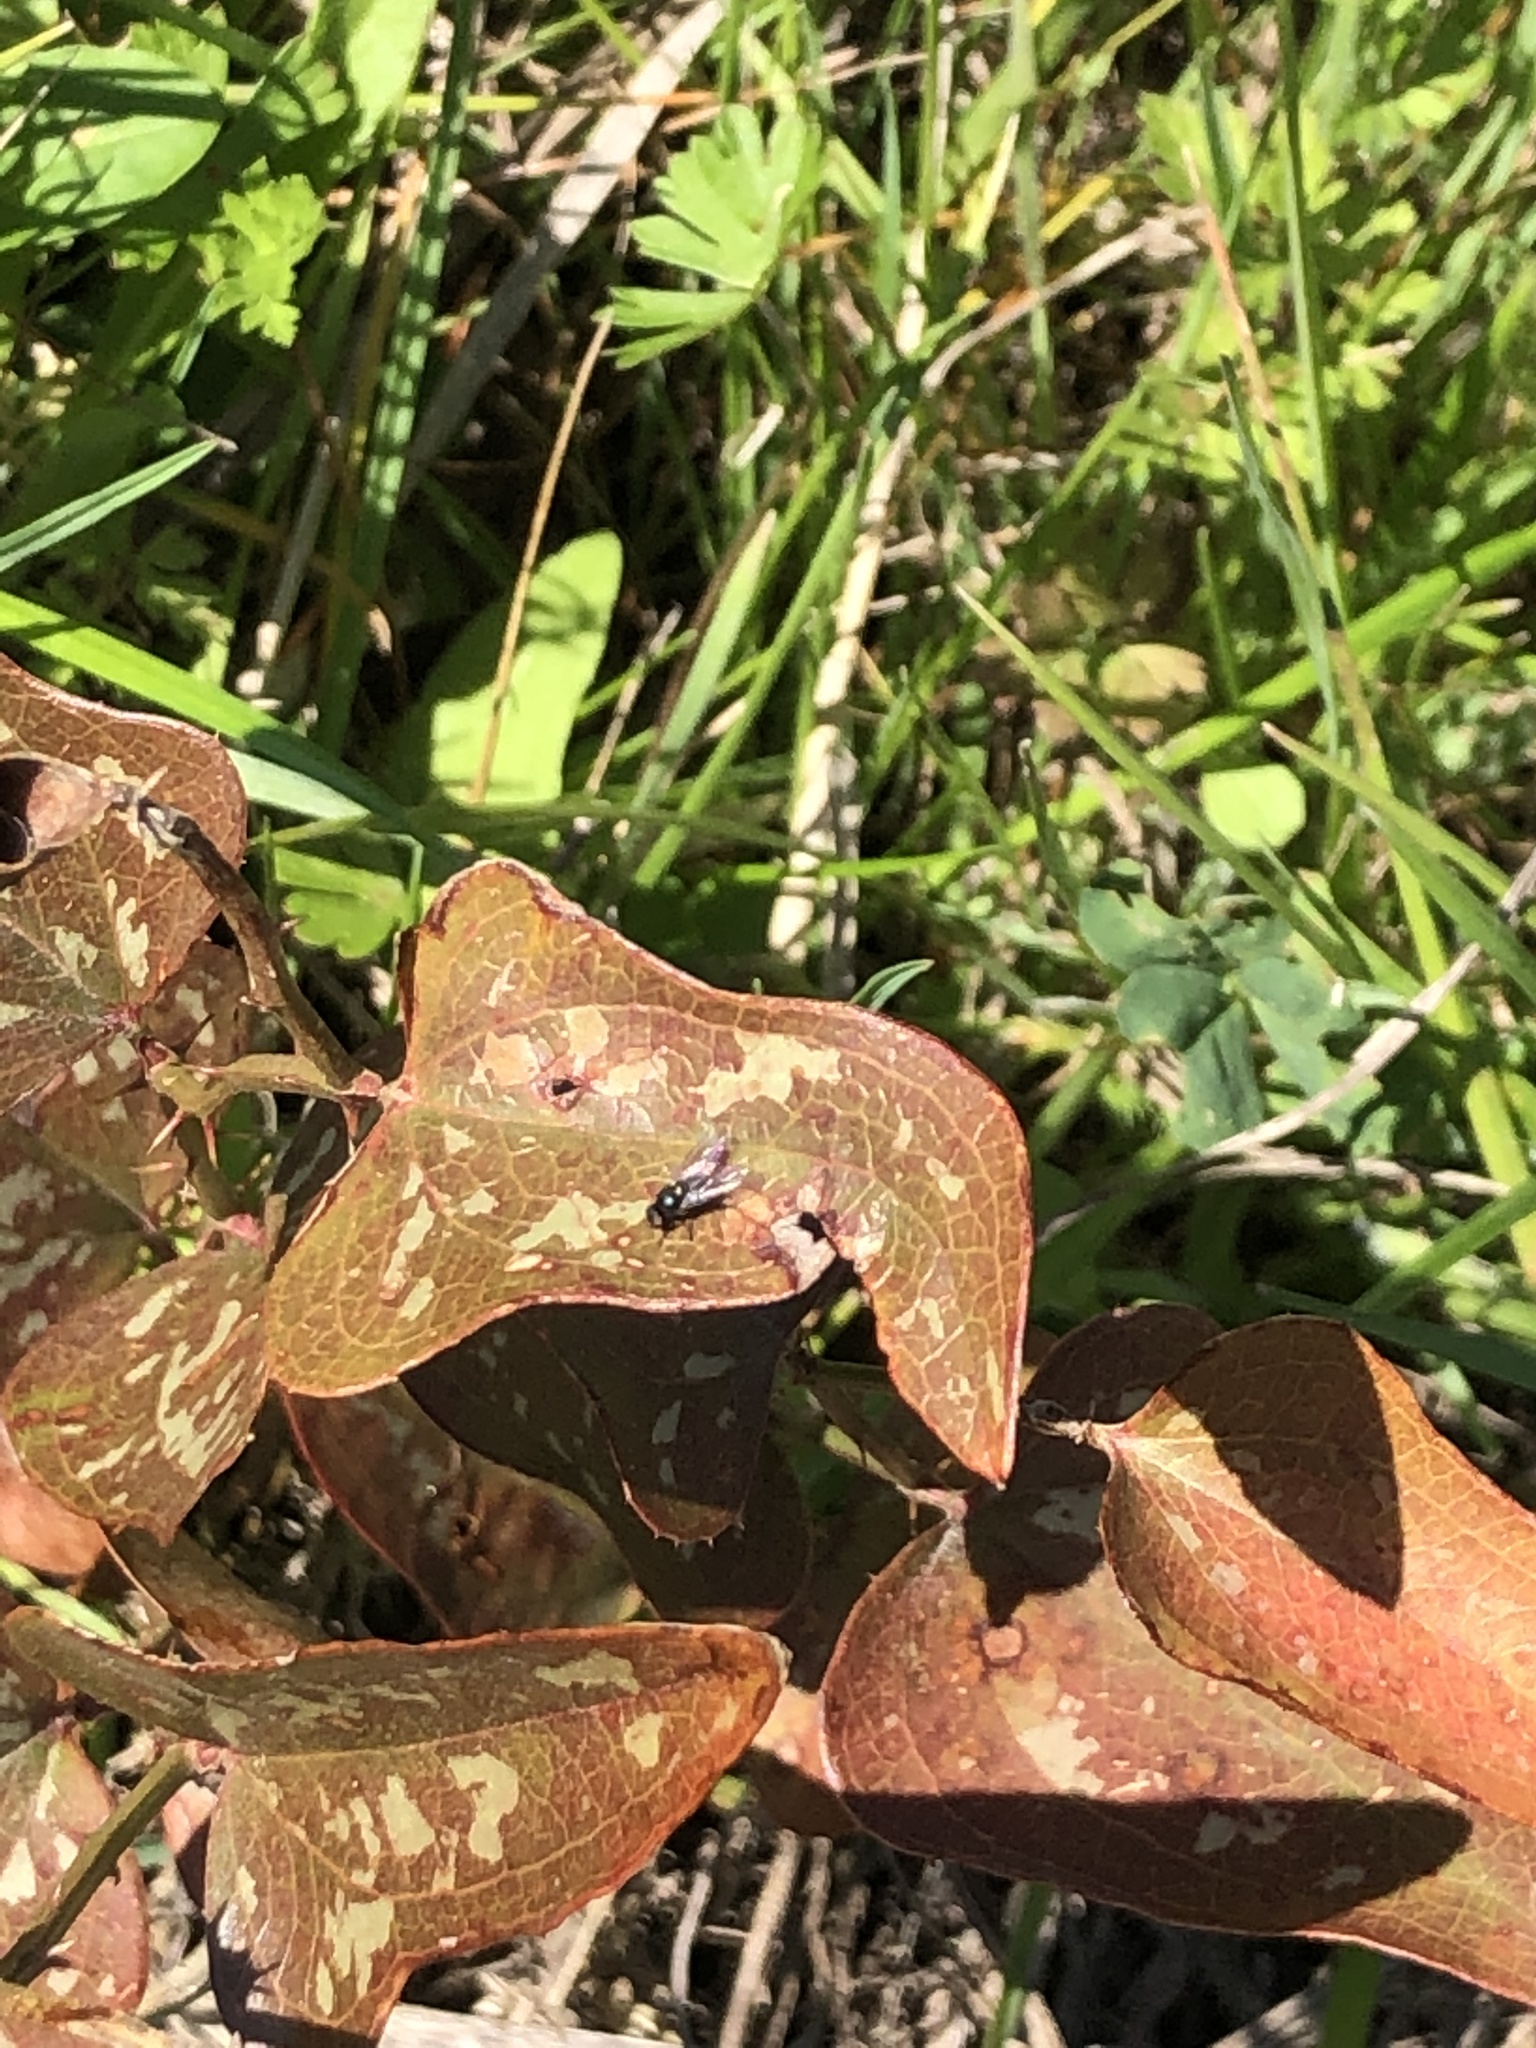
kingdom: Plantae
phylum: Tracheophyta
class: Liliopsida
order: Liliales
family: Smilacaceae
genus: Smilax
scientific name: Smilax bona-nox
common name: Catbrier
